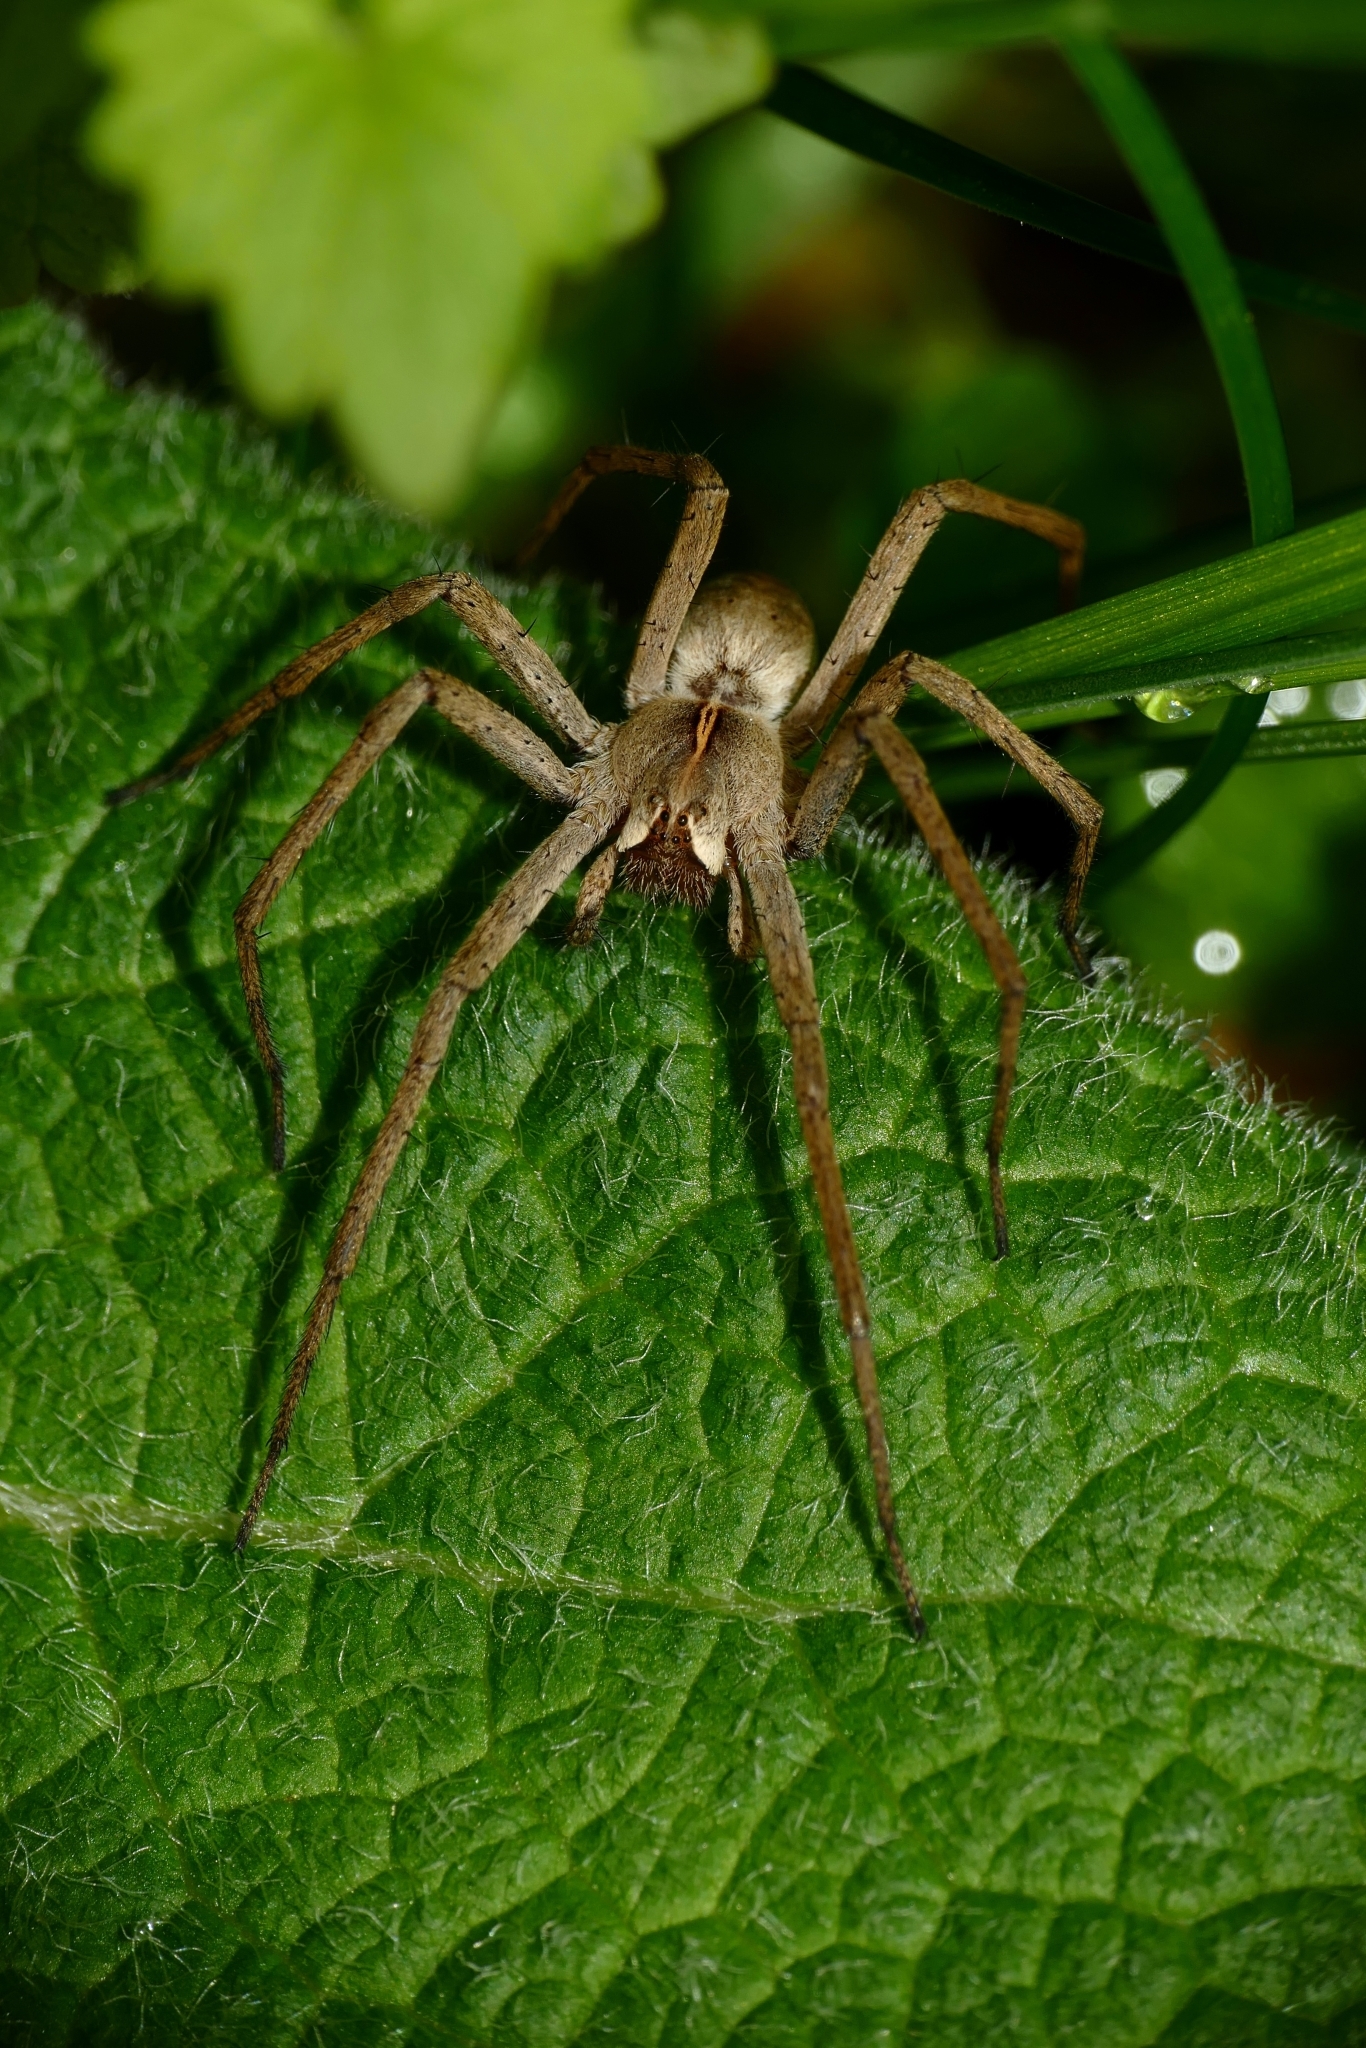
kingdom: Animalia
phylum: Arthropoda
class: Arachnida
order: Araneae
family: Pisauridae
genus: Pisaura
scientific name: Pisaura mirabilis
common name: Tent spider
